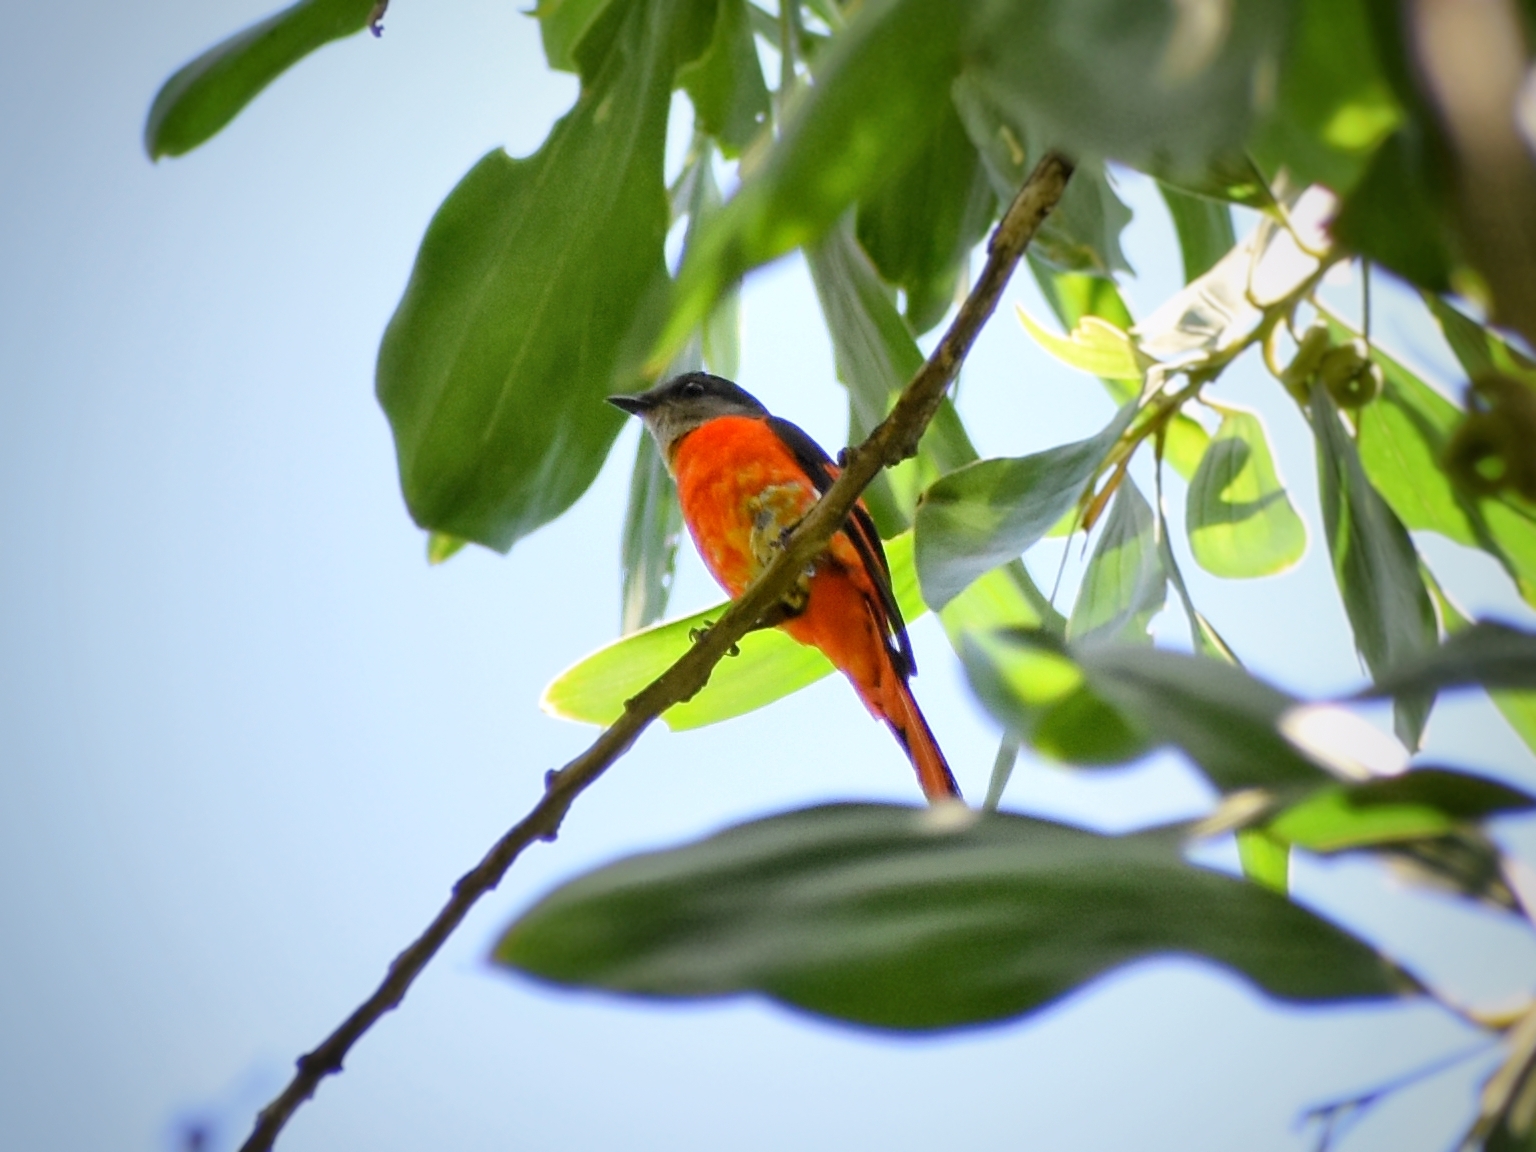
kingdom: Animalia
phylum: Chordata
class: Aves
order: Passeriformes
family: Campephagidae
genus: Pericrocotus
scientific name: Pericrocotus solaris
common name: Grey-chinned minivet
